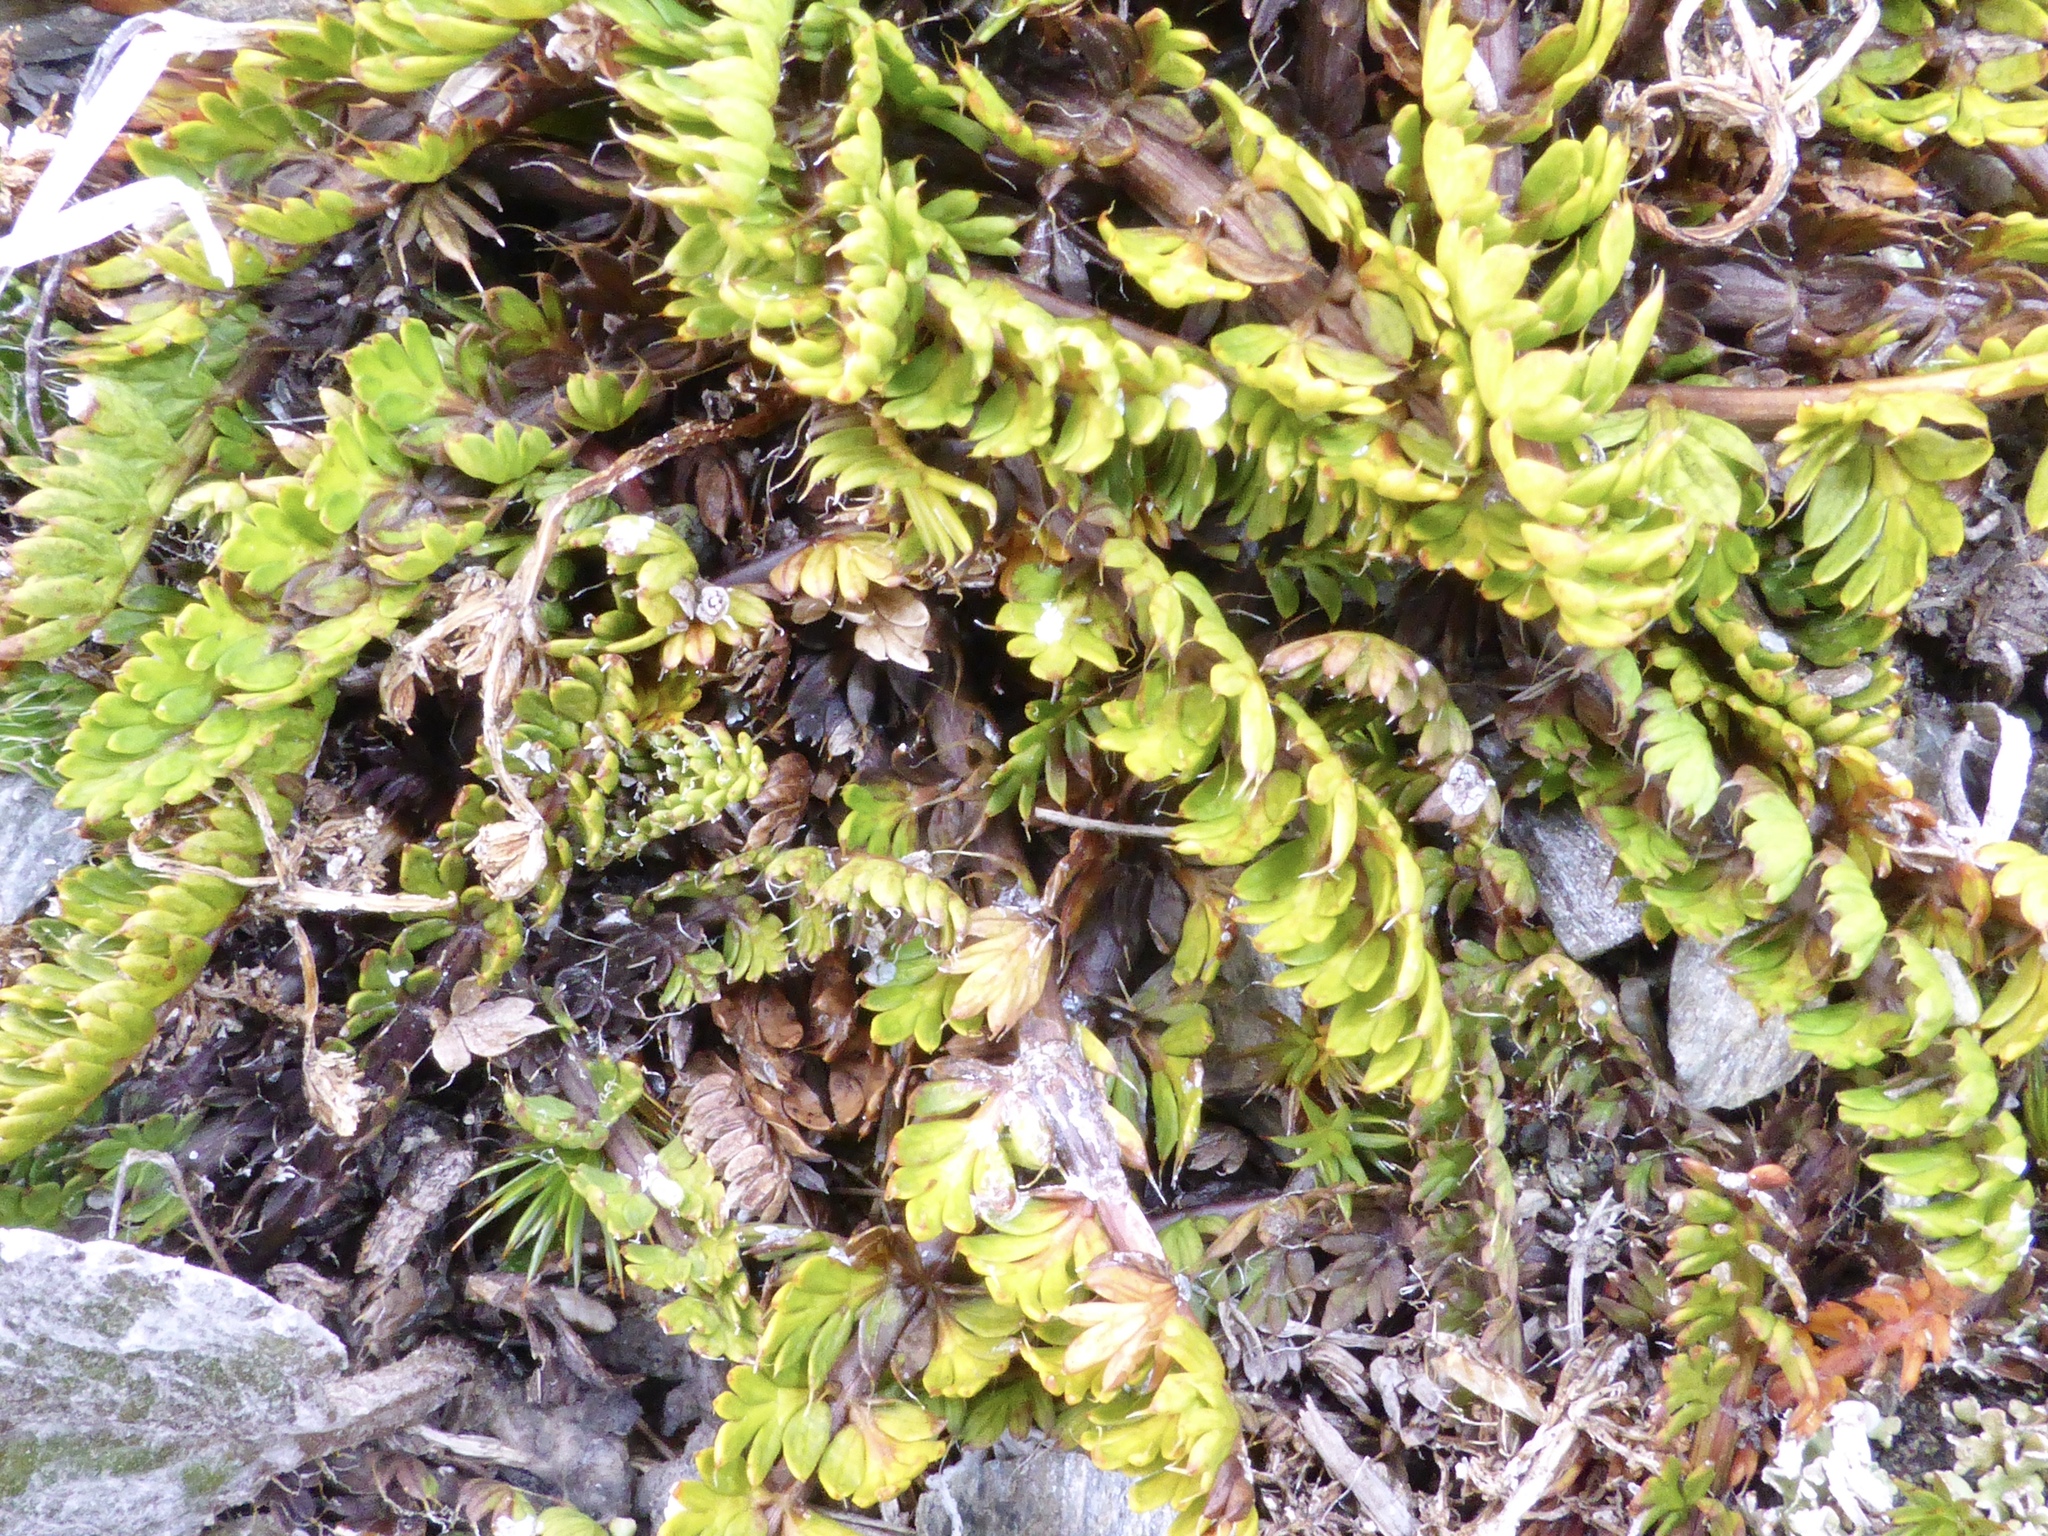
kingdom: Plantae
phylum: Tracheophyta
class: Magnoliopsida
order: Apiales
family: Apiaceae
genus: Anisotome
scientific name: Anisotome flexuosa
